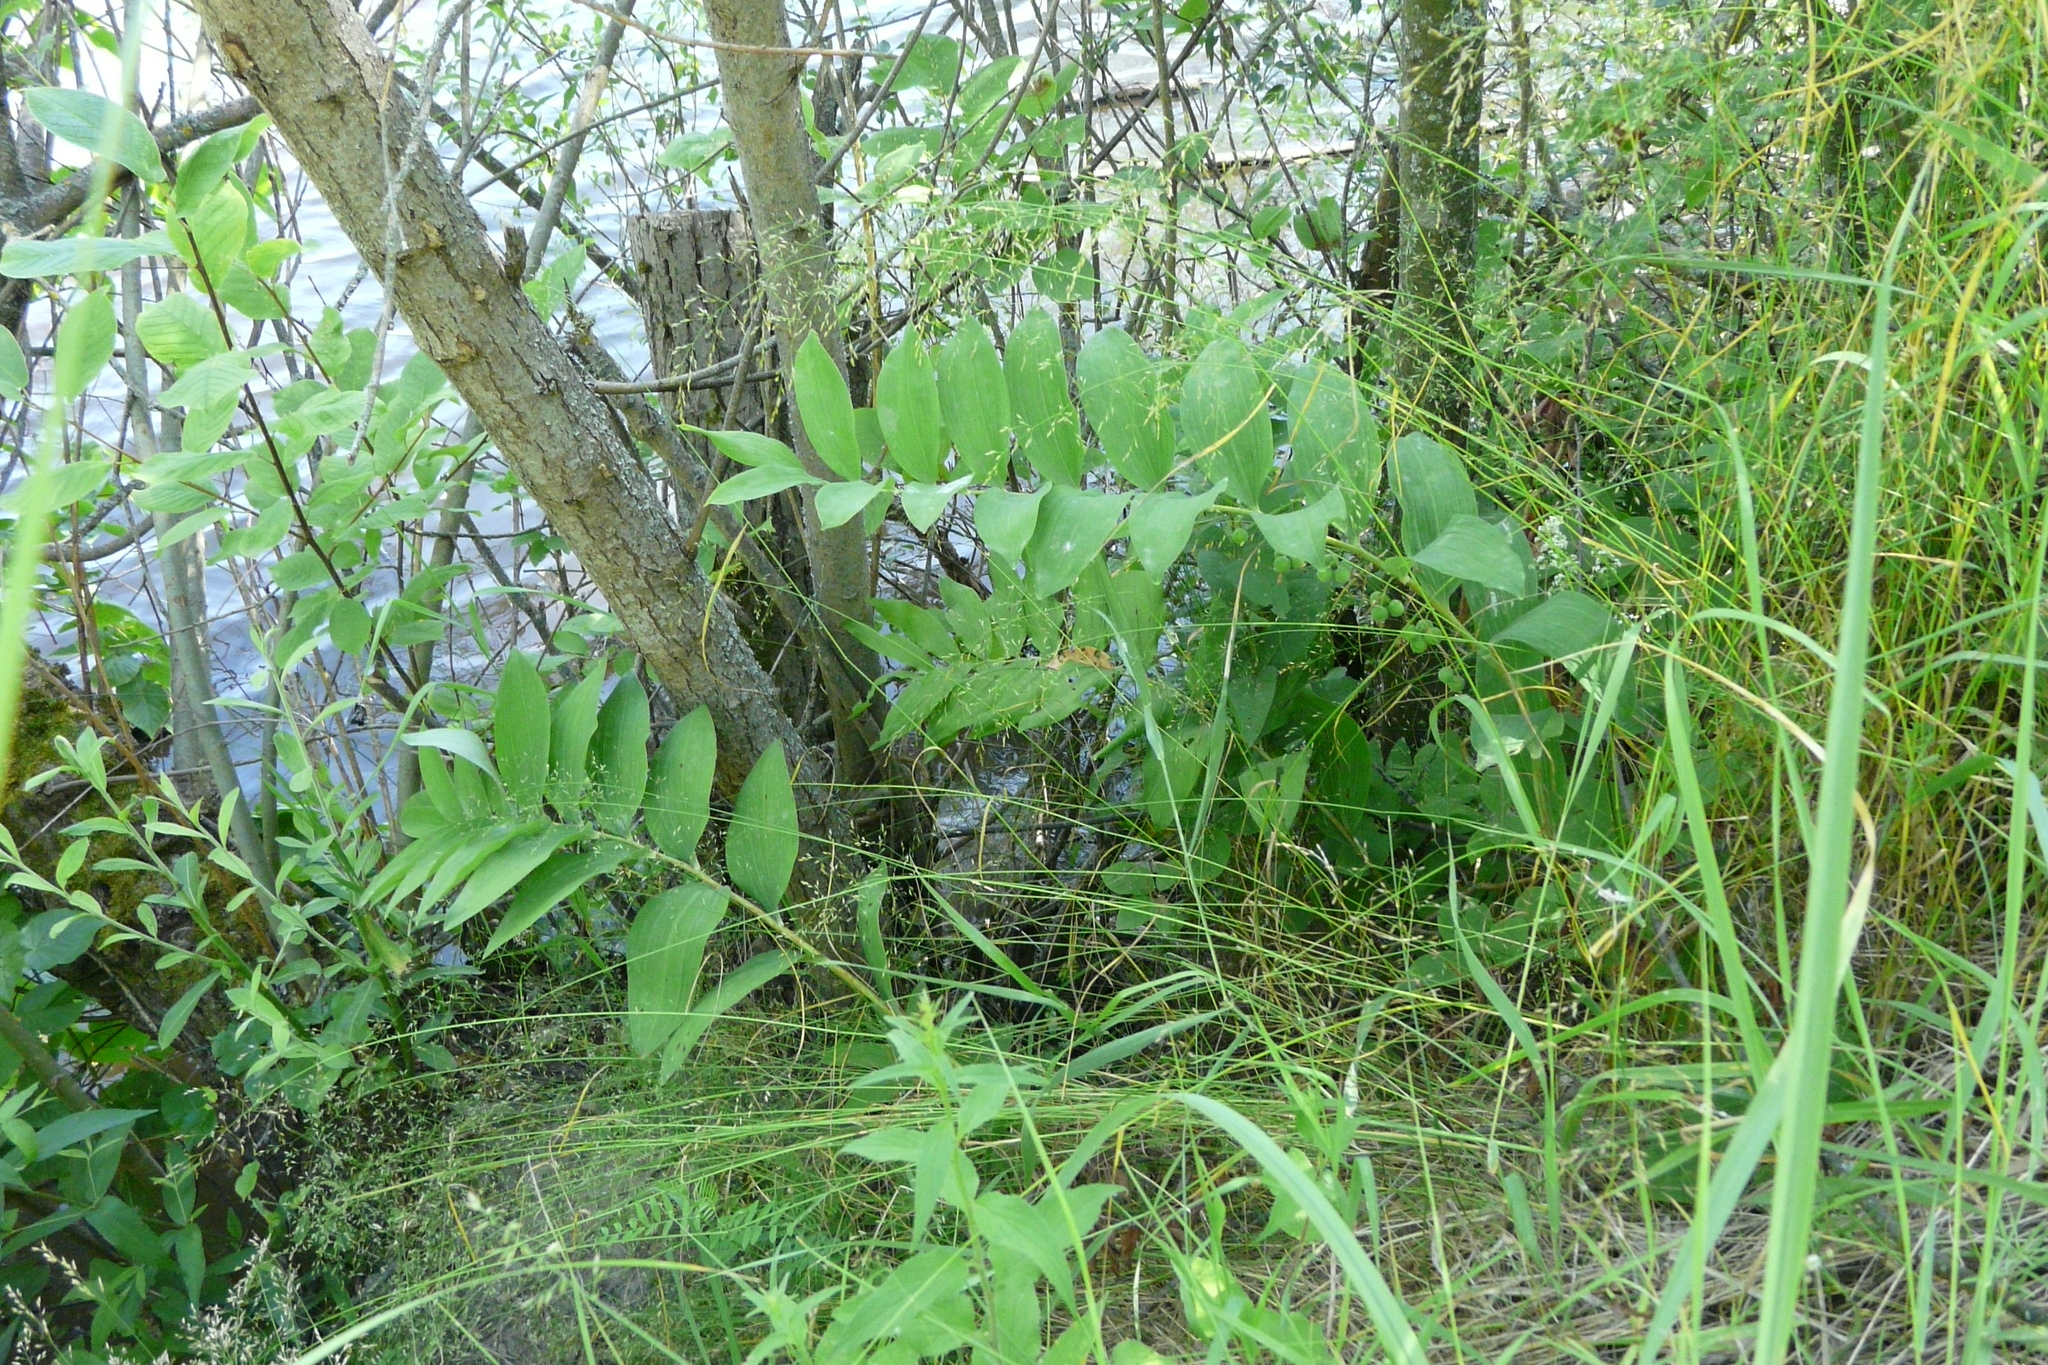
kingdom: Plantae
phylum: Tracheophyta
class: Liliopsida
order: Asparagales
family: Asparagaceae
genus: Polygonatum
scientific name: Polygonatum multiflorum
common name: Solomon's-seal
